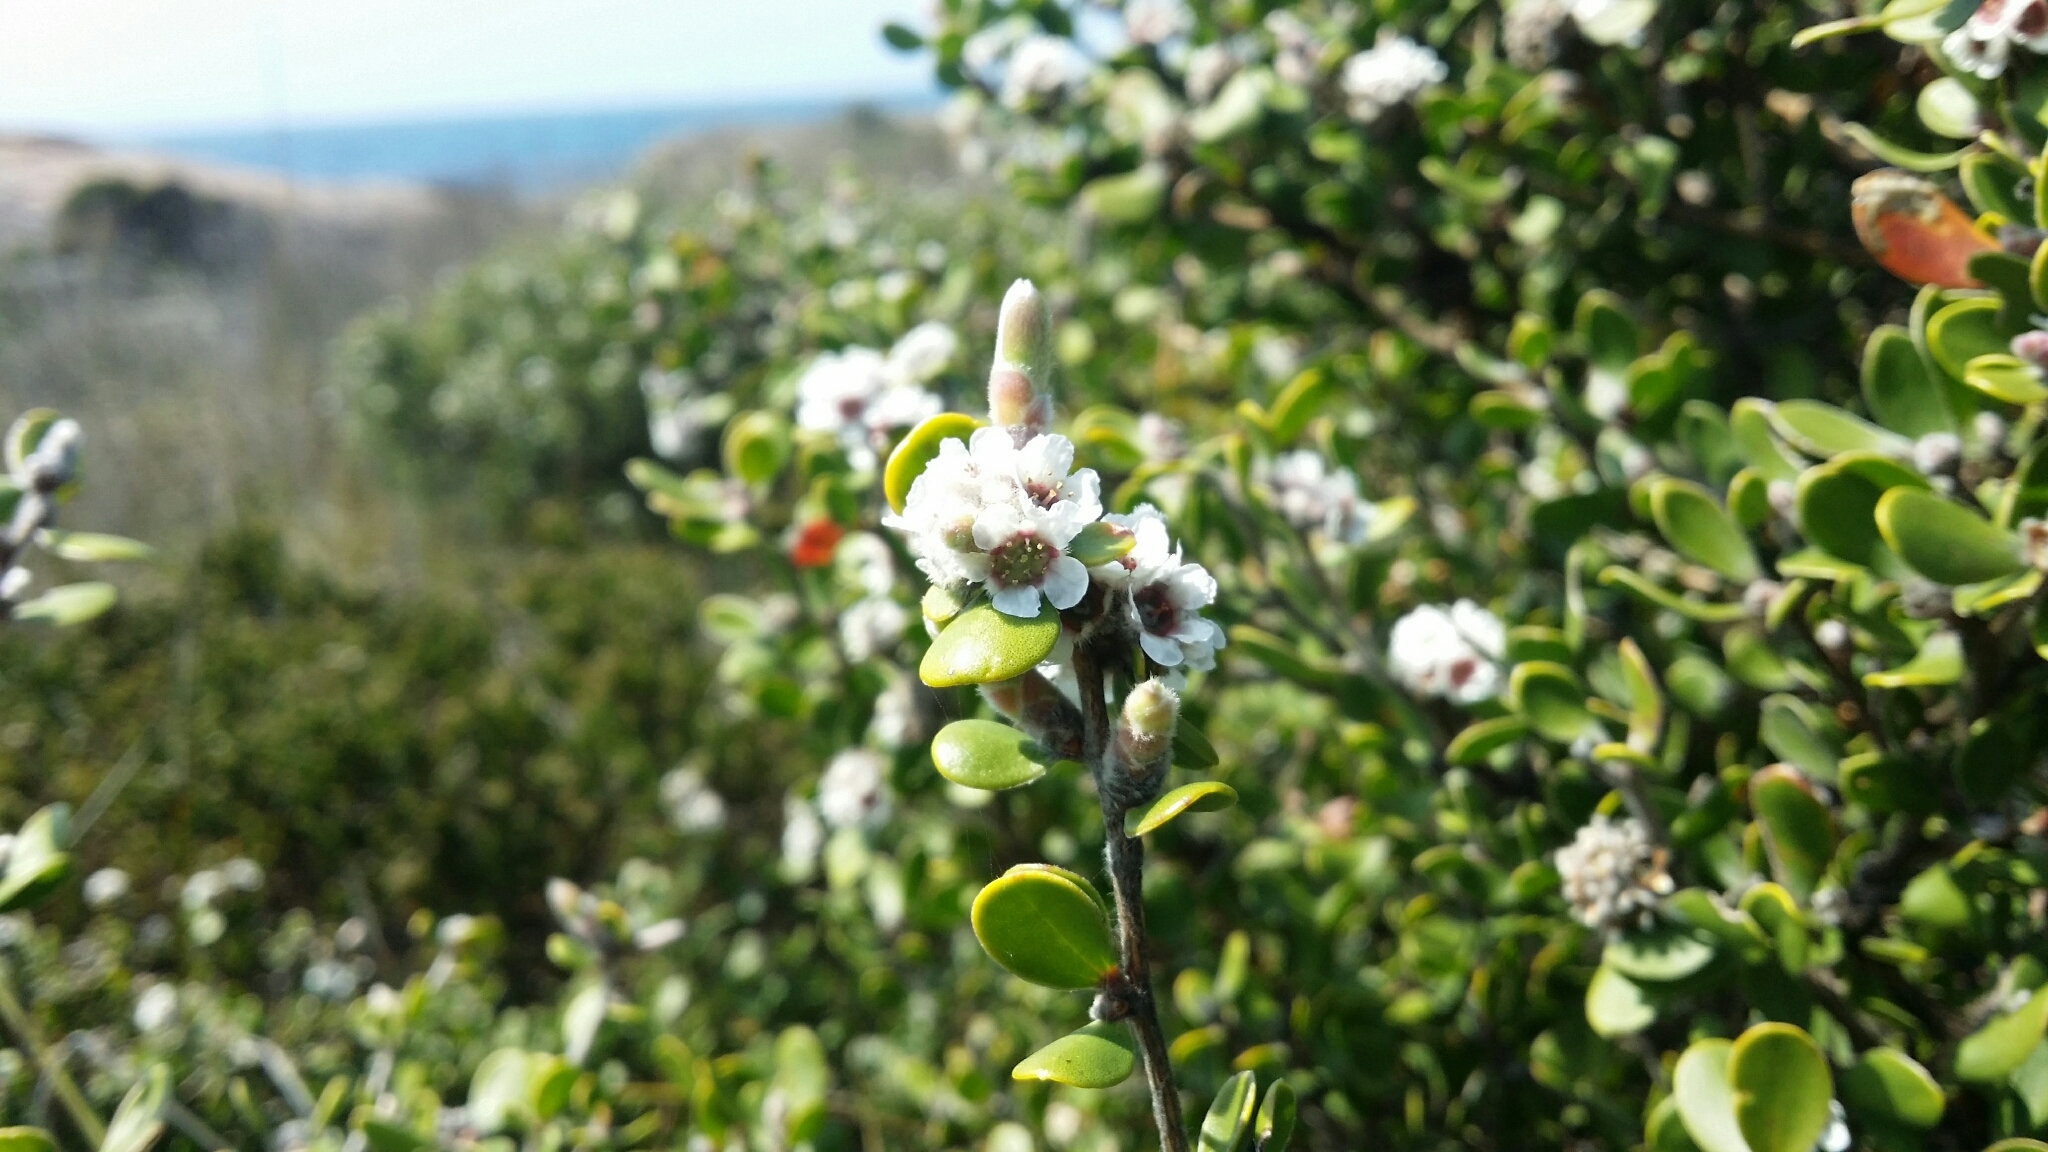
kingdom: Plantae
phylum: Tracheophyta
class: Magnoliopsida
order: Myrtales
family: Myrtaceae
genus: Taxandria
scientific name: Taxandria marginata
